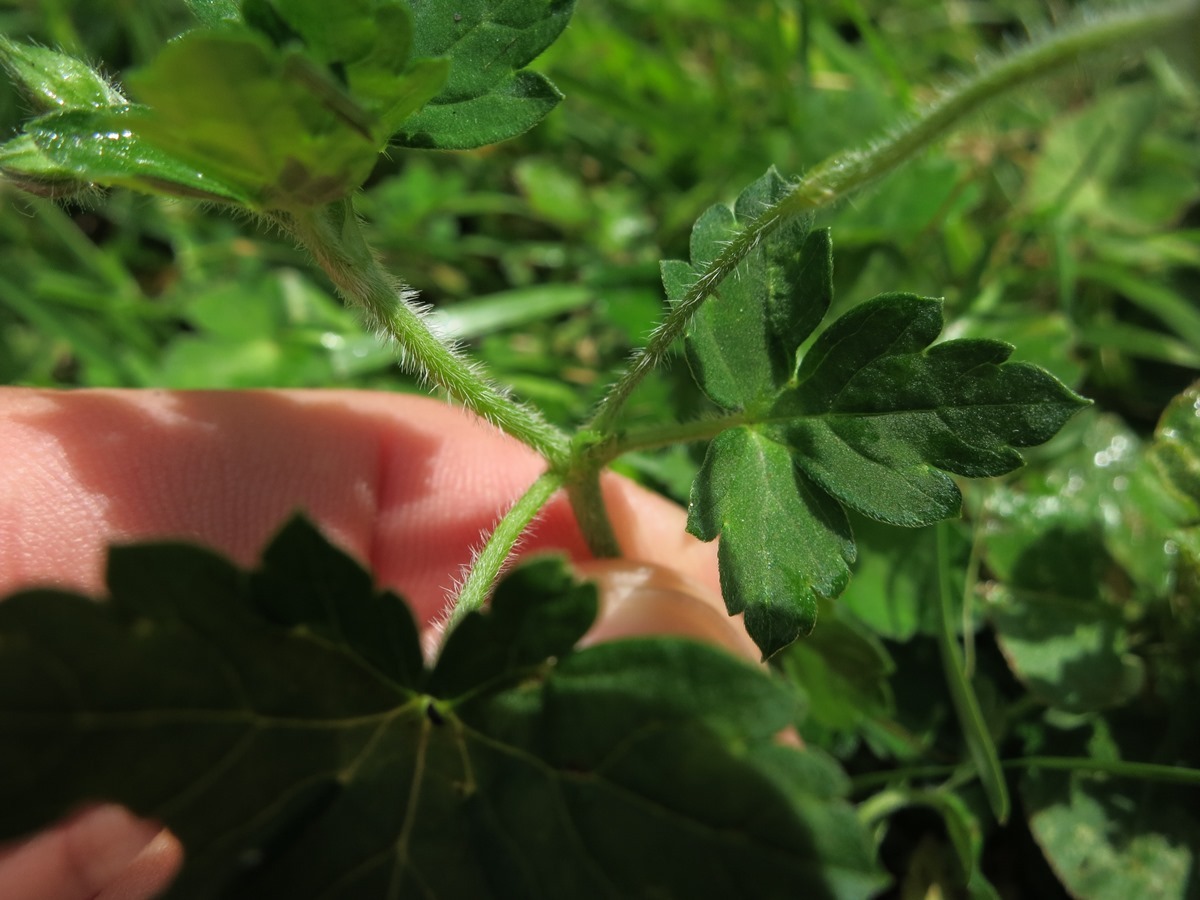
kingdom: Plantae
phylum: Tracheophyta
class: Magnoliopsida
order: Geraniales
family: Geraniaceae
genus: Geranium
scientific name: Geranium thunbergii
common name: Dewdrop crane's-bill
